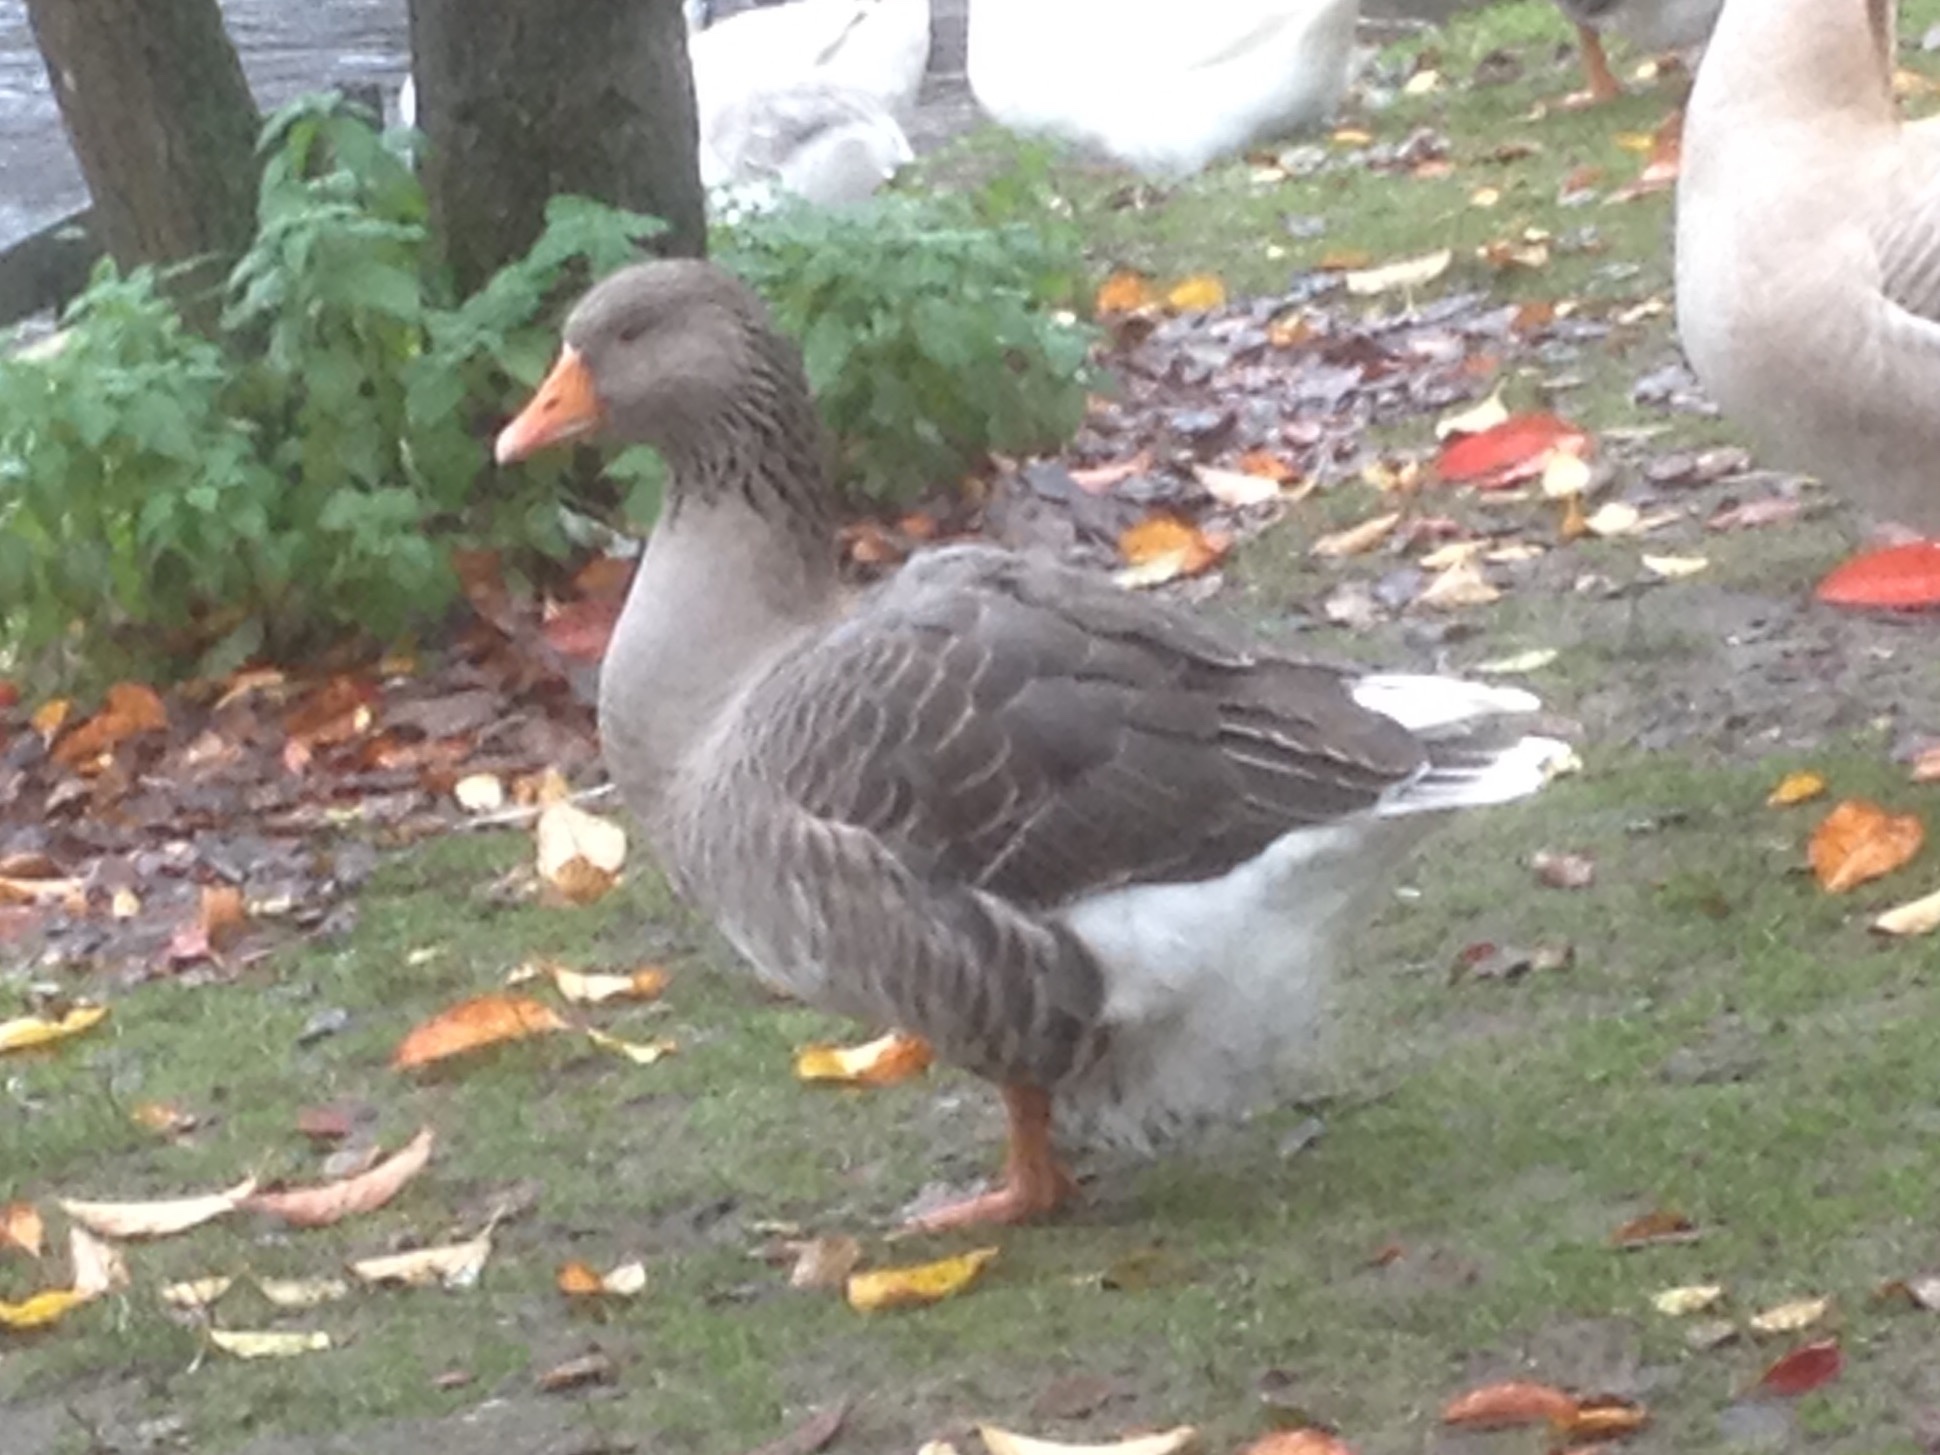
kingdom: Animalia
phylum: Chordata
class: Aves
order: Anseriformes
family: Anatidae
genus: Anser
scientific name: Anser anser
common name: Greylag goose
